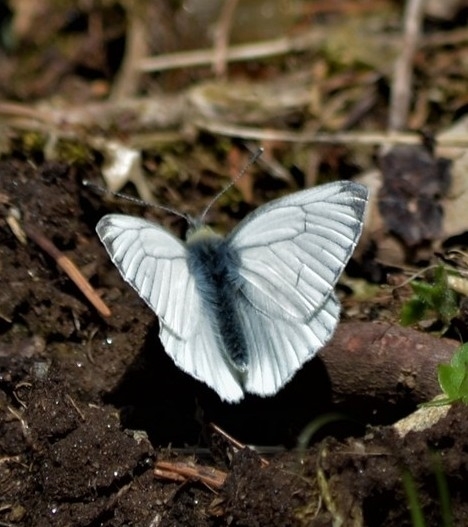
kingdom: Animalia
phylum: Arthropoda
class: Insecta
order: Lepidoptera
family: Pieridae
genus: Pieris
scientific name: Pieris napi
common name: Green-veined white
